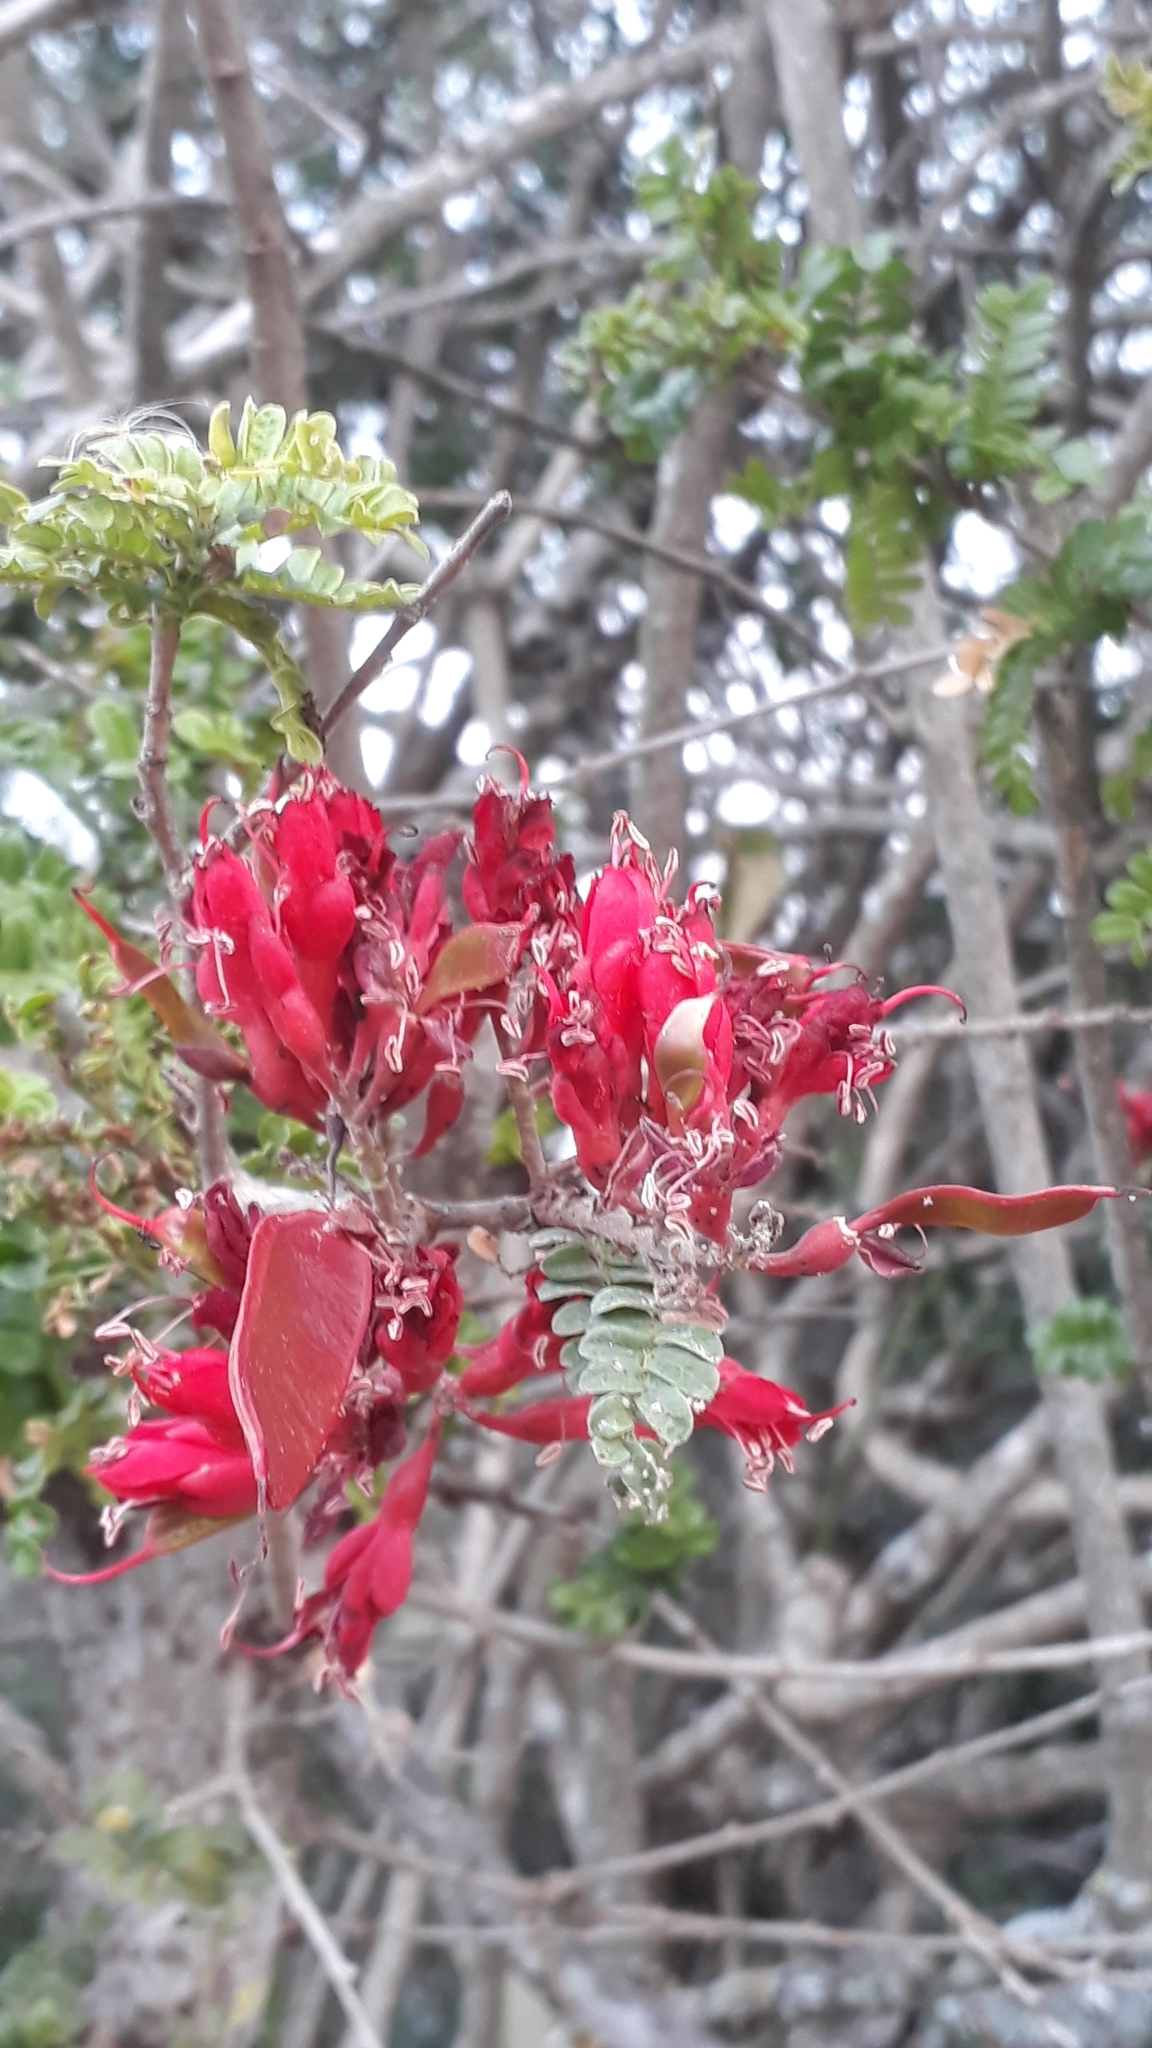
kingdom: Plantae
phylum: Tracheophyta
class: Magnoliopsida
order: Fabales
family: Fabaceae
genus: Schotia
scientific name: Schotia afra
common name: Hottentot's bean
